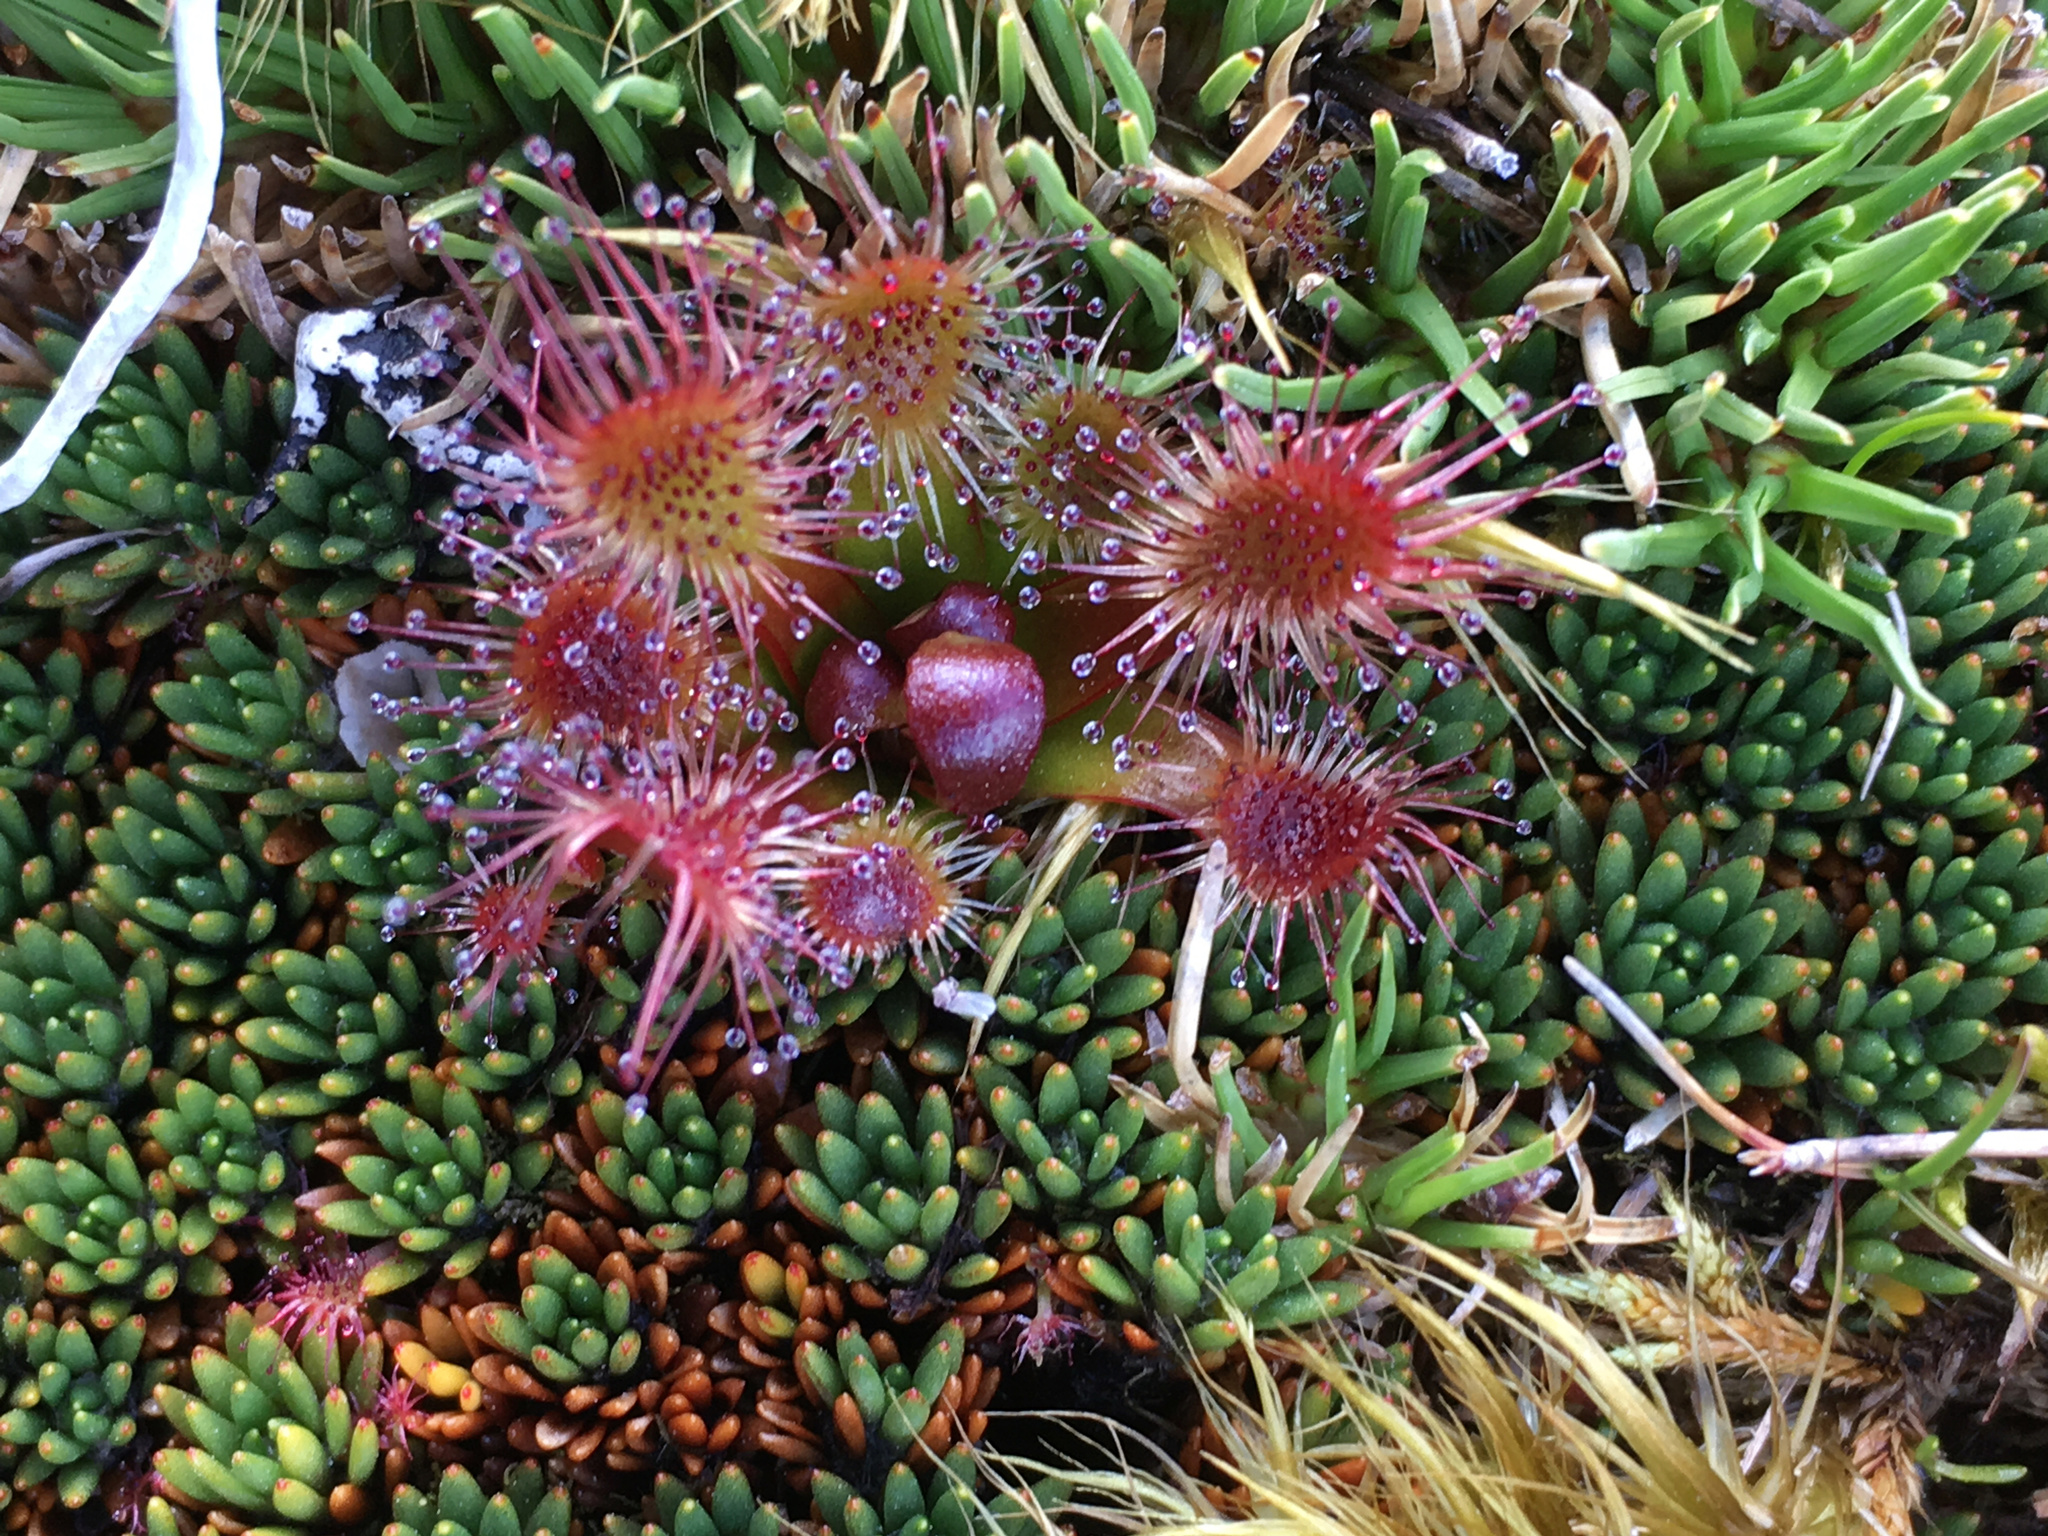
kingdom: Plantae
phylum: Tracheophyta
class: Magnoliopsida
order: Caryophyllales
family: Droseraceae
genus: Drosera
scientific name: Drosera stenopetala
